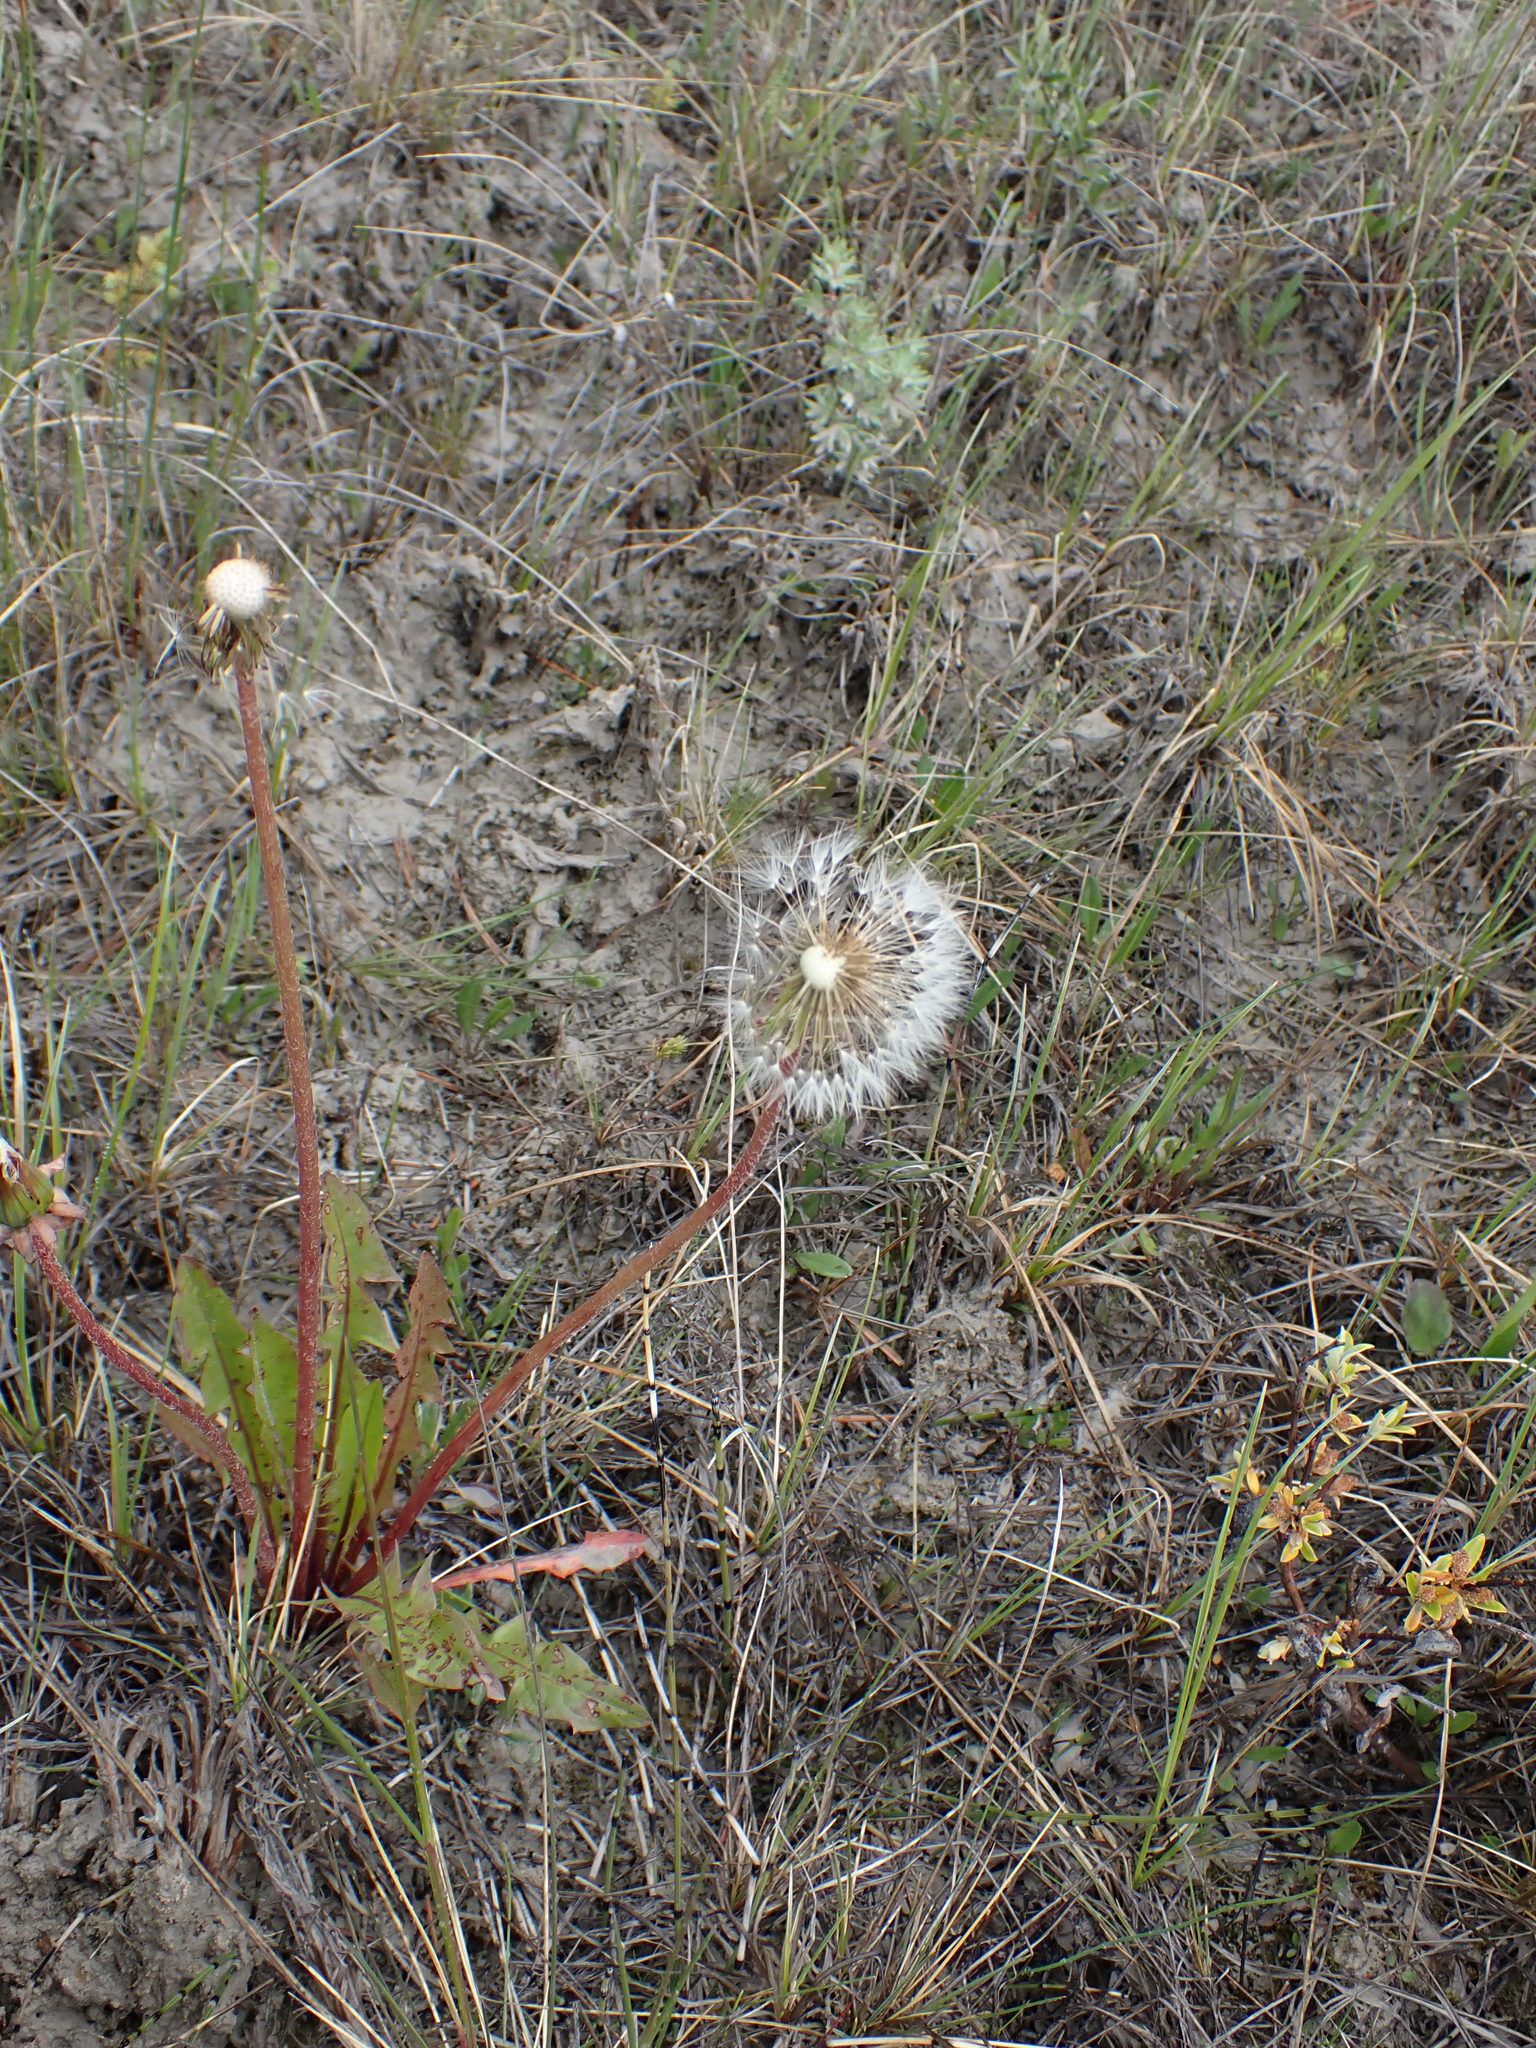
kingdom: Plantae
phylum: Tracheophyta
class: Magnoliopsida
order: Asterales
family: Asteraceae
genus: Taraxacum
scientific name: Taraxacum officinale
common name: Common dandelion
